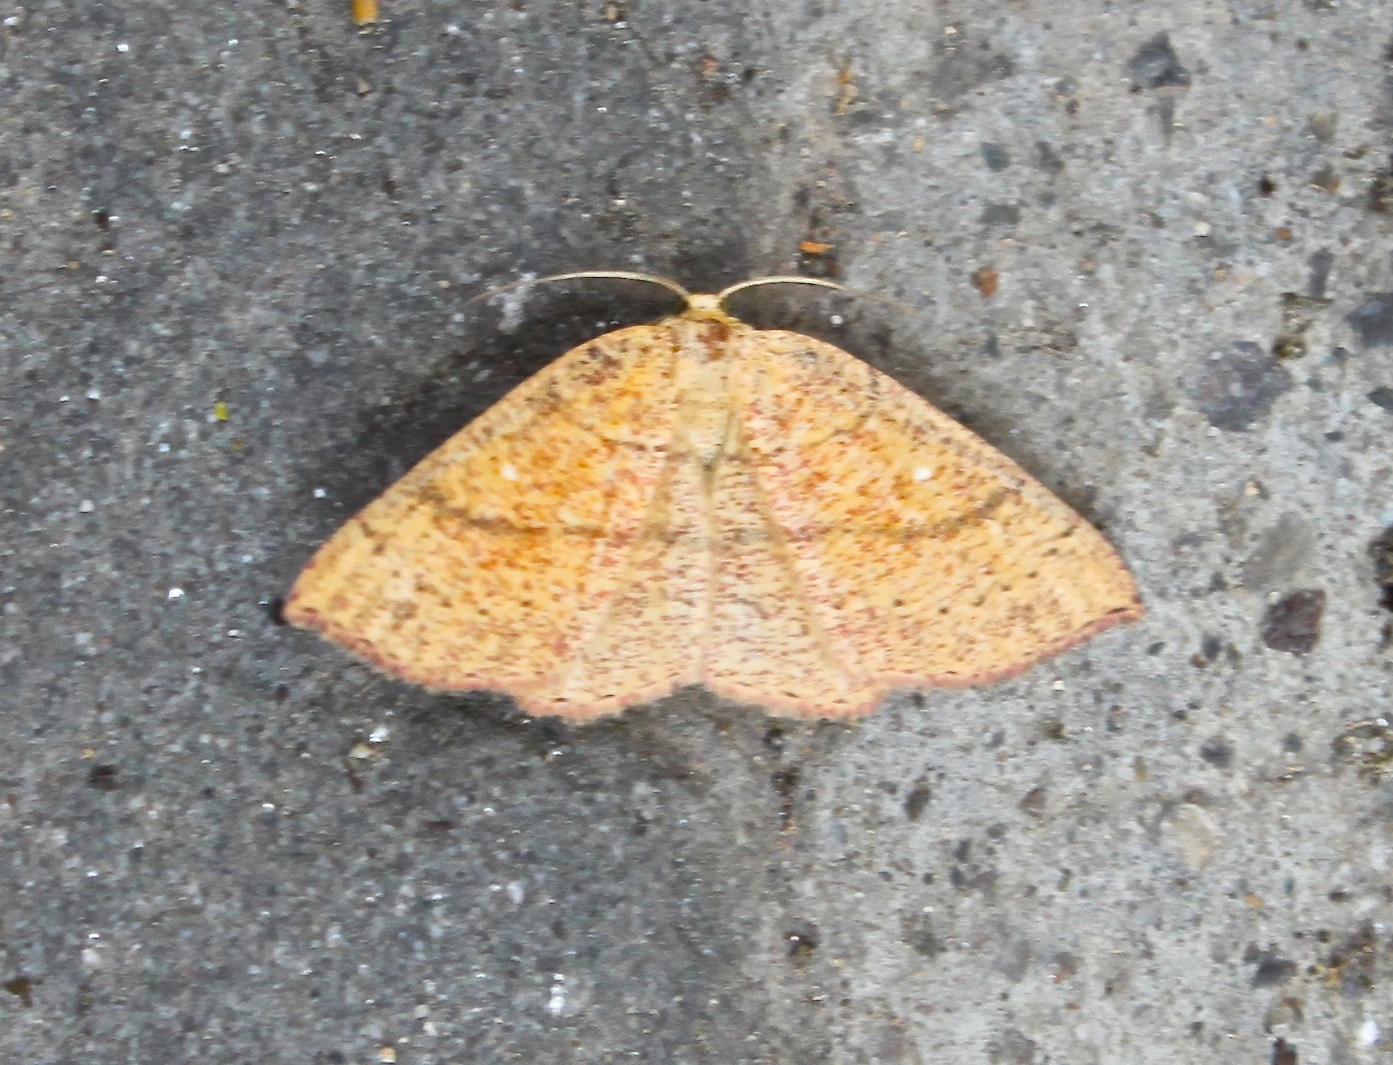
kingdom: Animalia
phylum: Arthropoda
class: Insecta
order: Lepidoptera
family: Geometridae
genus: Cyclophora
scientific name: Cyclophora suppunctaria
